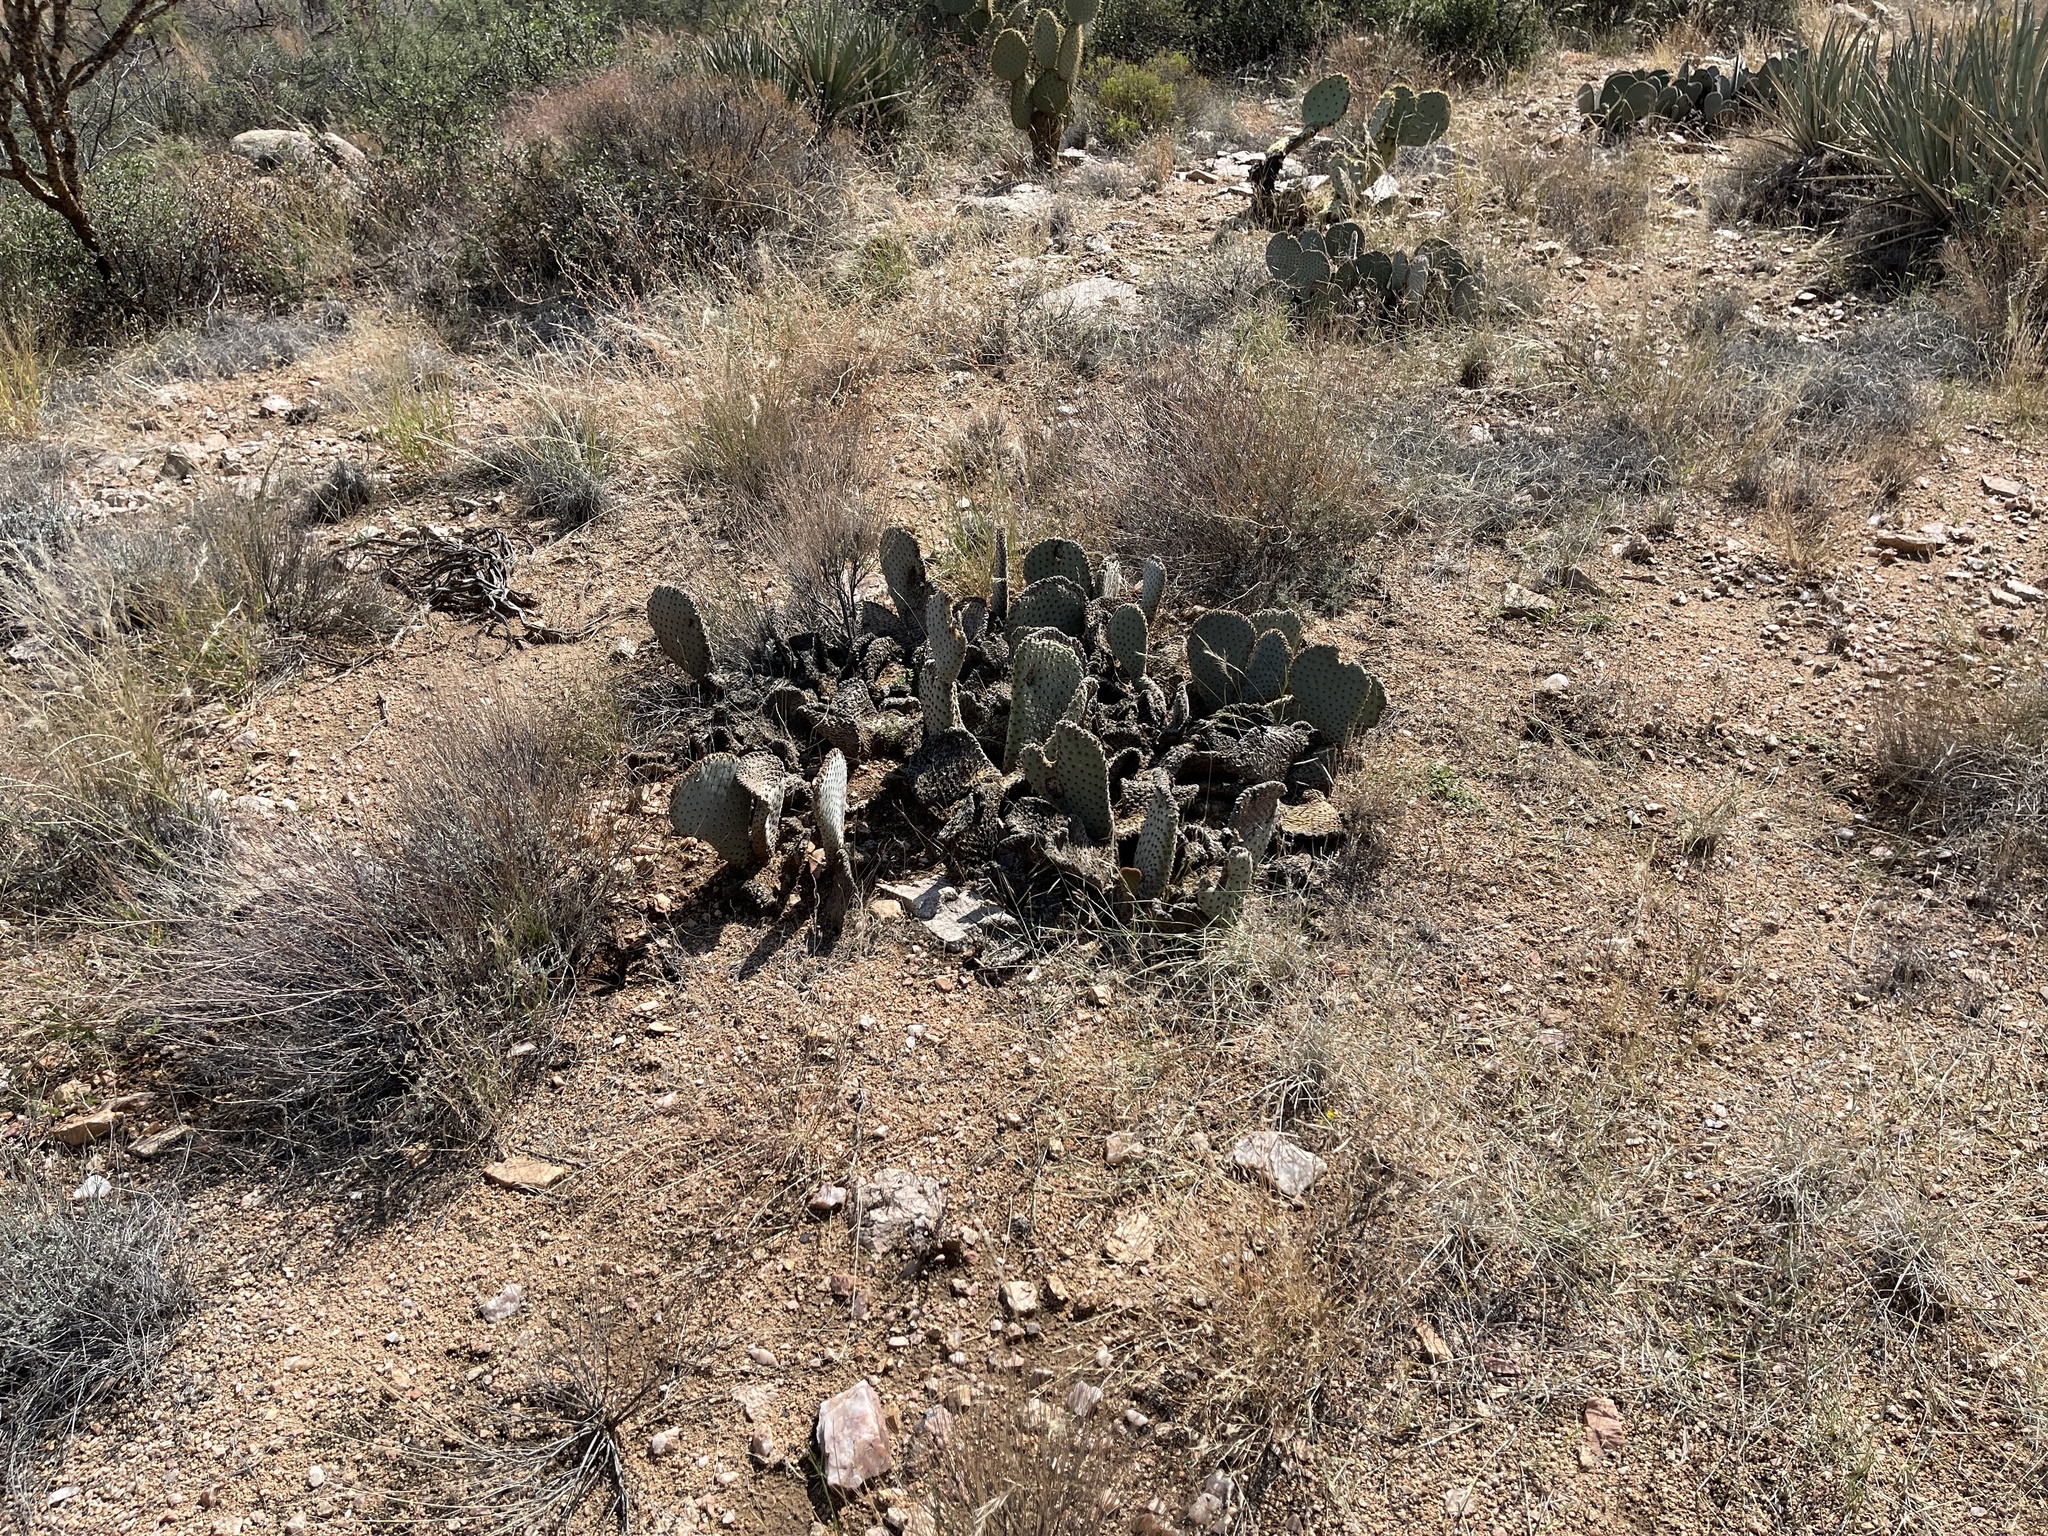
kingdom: Plantae
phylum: Tracheophyta
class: Magnoliopsida
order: Caryophyllales
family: Cactaceae
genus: Opuntia
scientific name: Opuntia basilaris
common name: Beavertail prickly-pear
